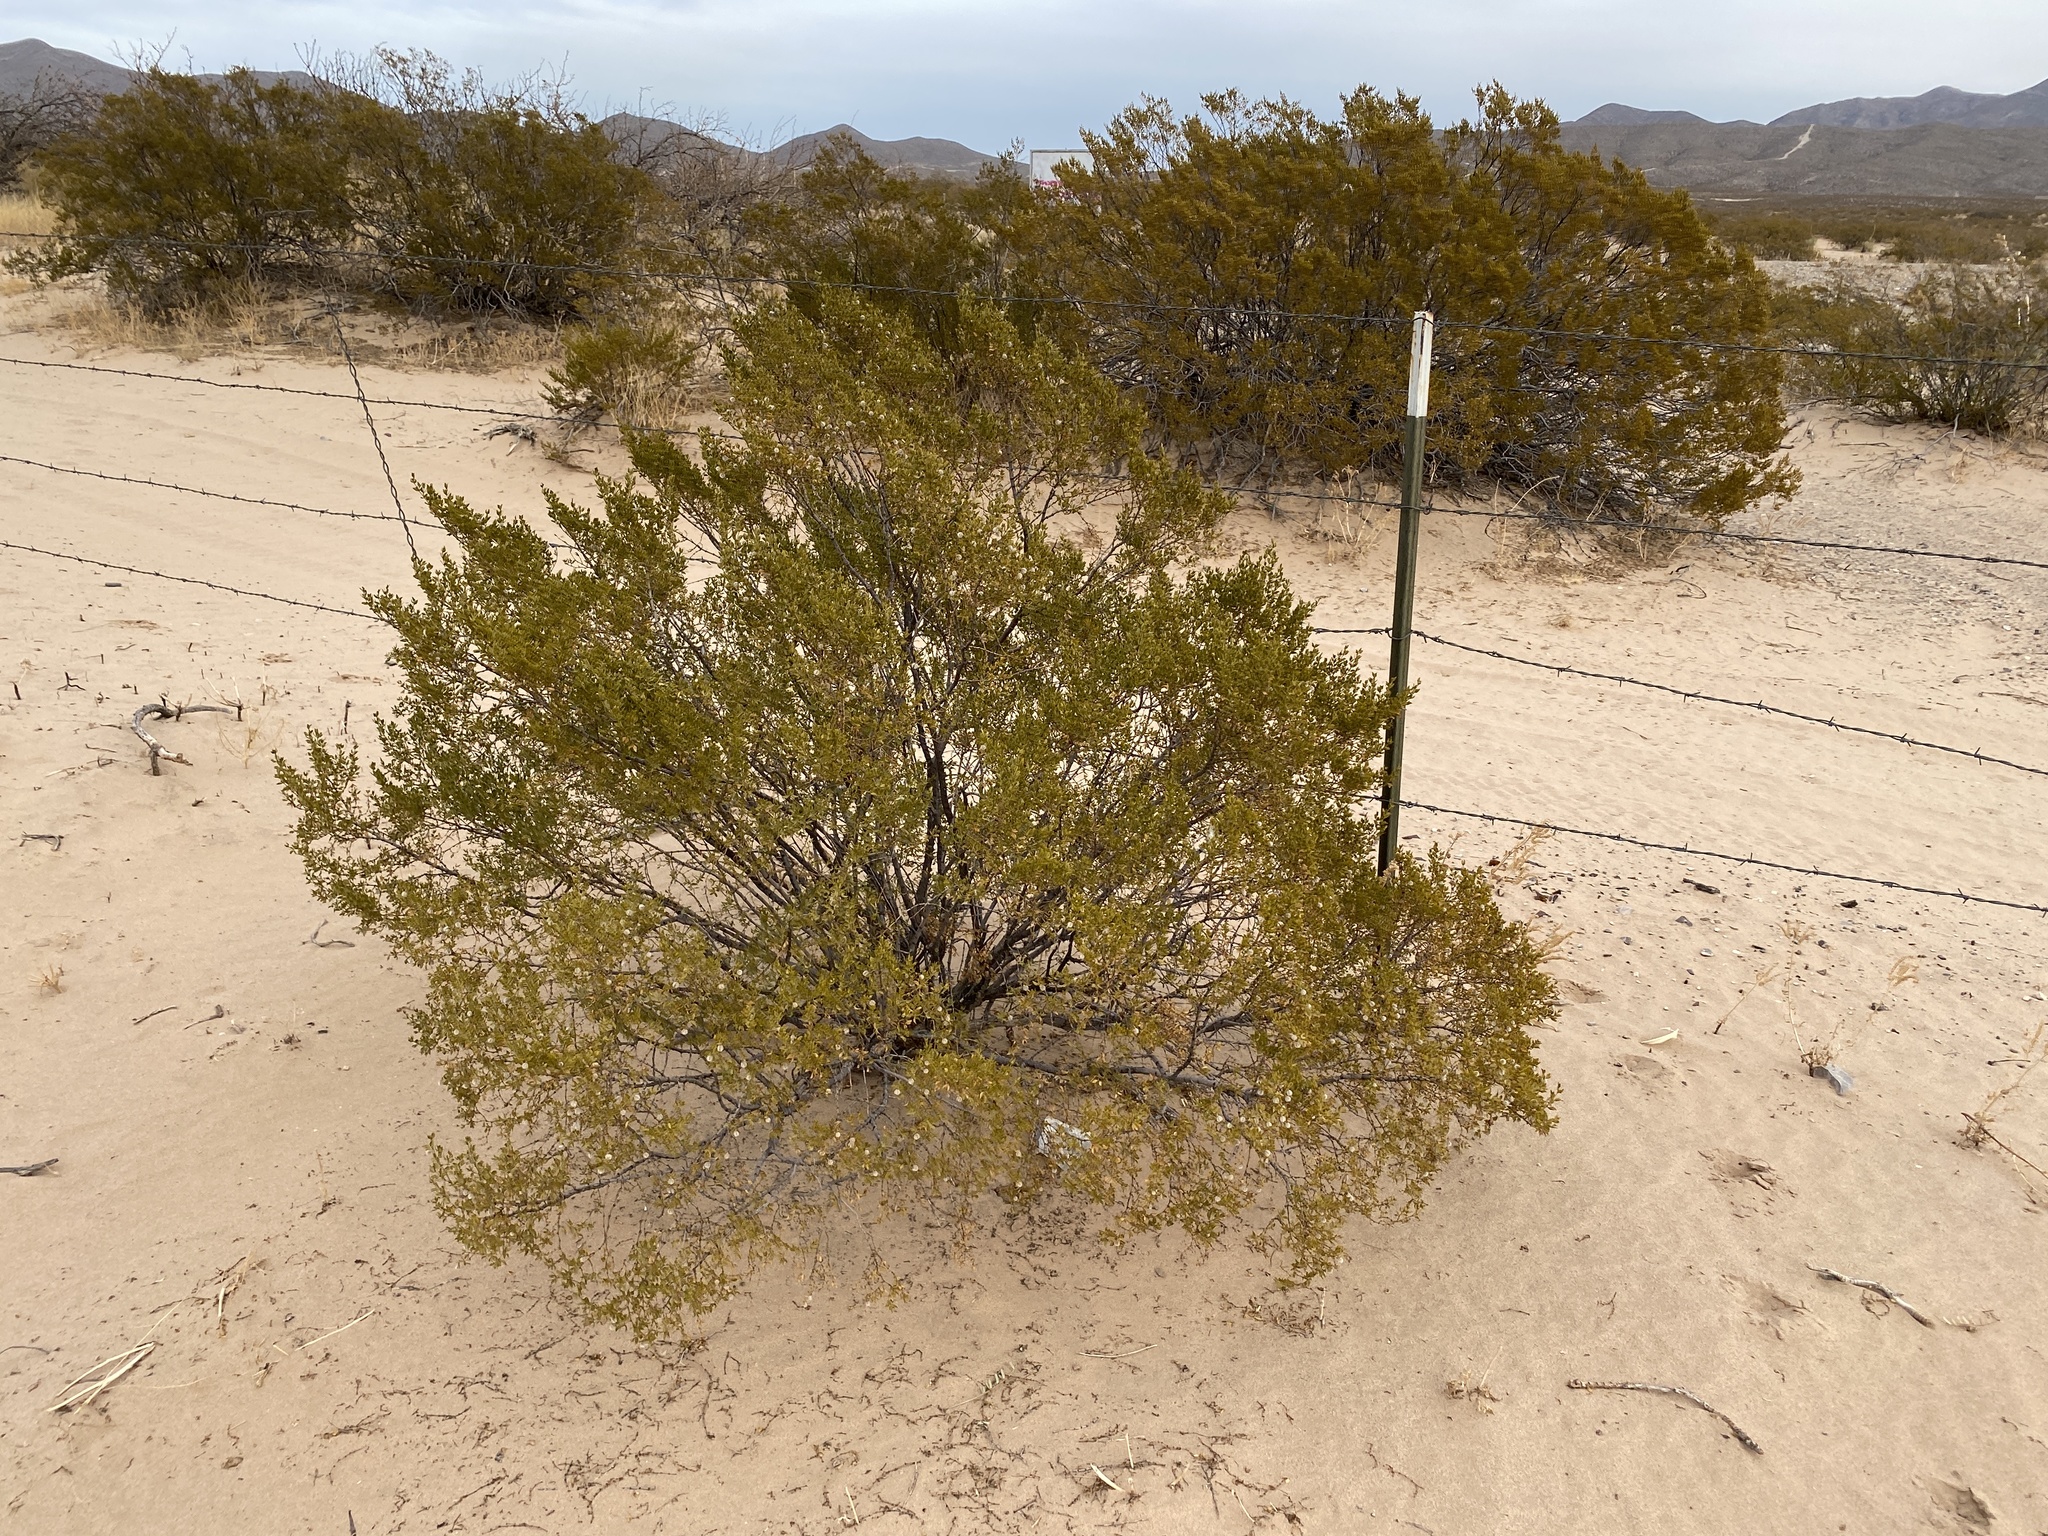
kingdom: Plantae
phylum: Tracheophyta
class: Magnoliopsida
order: Zygophyllales
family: Zygophyllaceae
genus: Larrea
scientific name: Larrea tridentata
